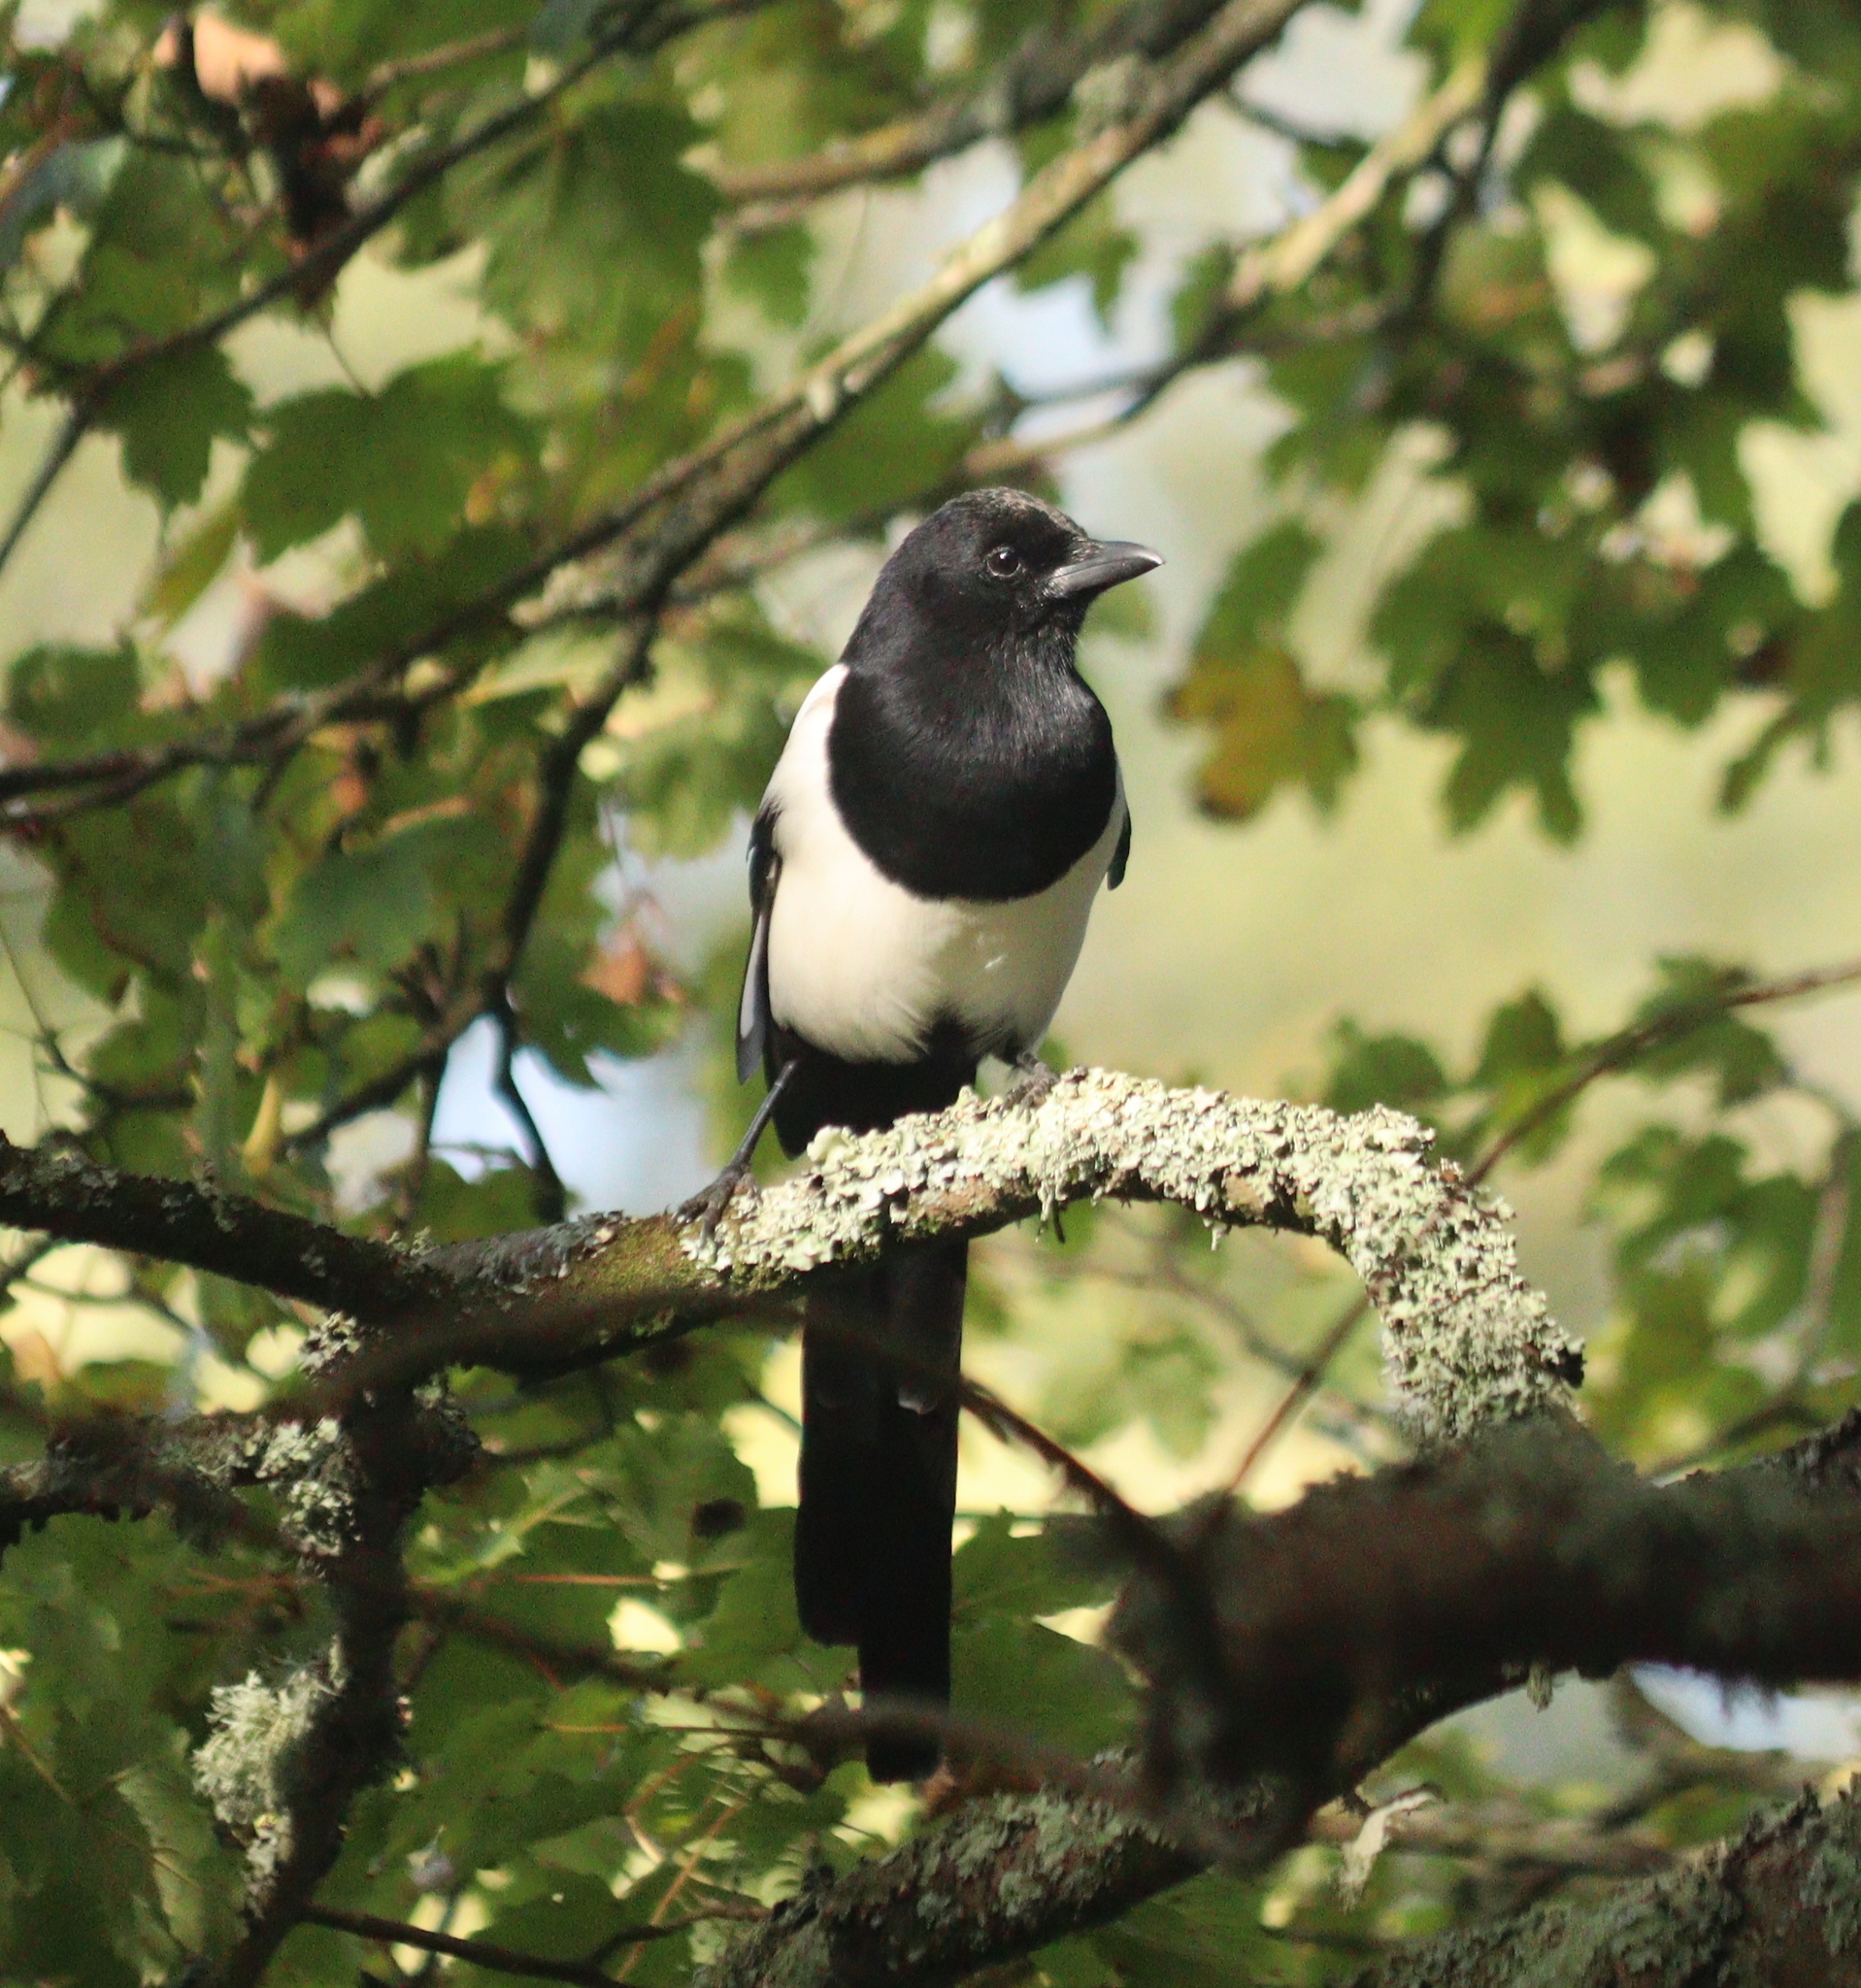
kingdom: Animalia
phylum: Chordata
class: Aves
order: Passeriformes
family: Corvidae
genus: Pica
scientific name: Pica pica
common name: Eurasian magpie
